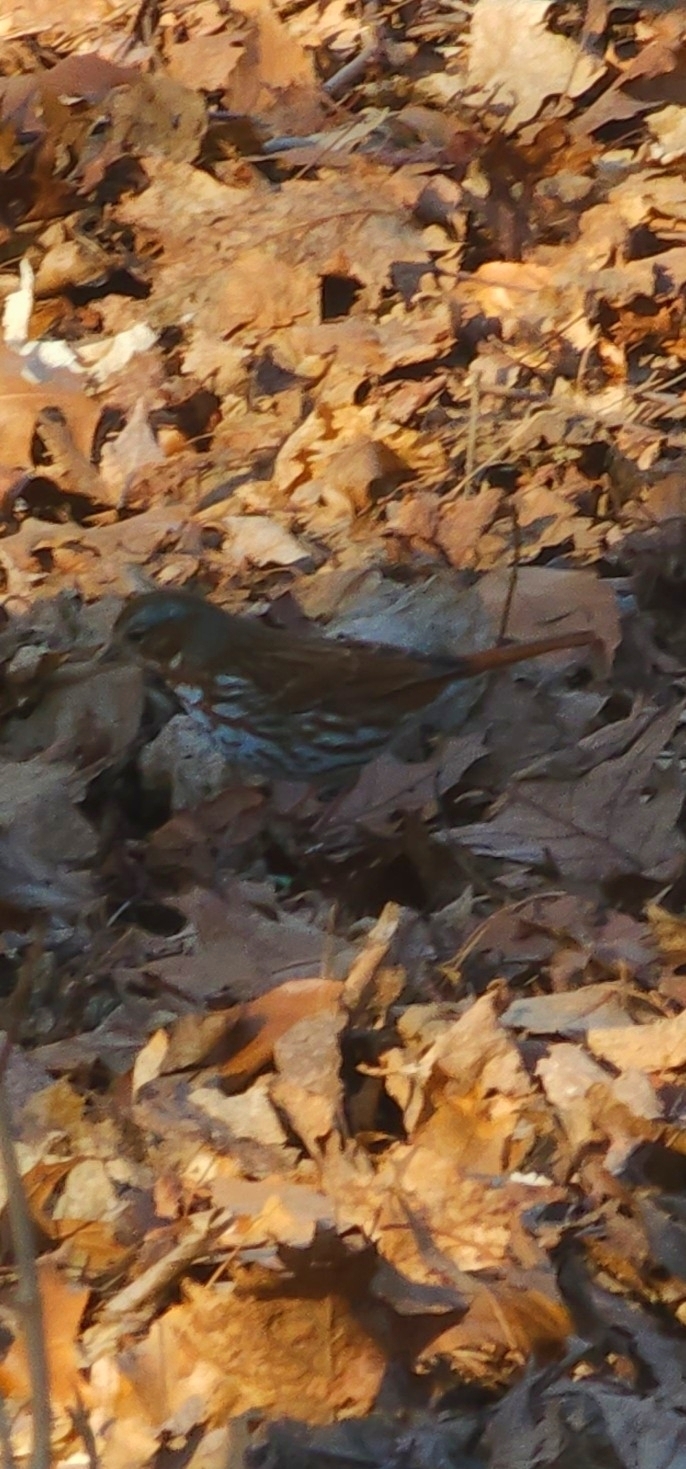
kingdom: Animalia
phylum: Chordata
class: Aves
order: Passeriformes
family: Passerellidae
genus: Passerella
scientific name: Passerella iliaca
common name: Fox sparrow
